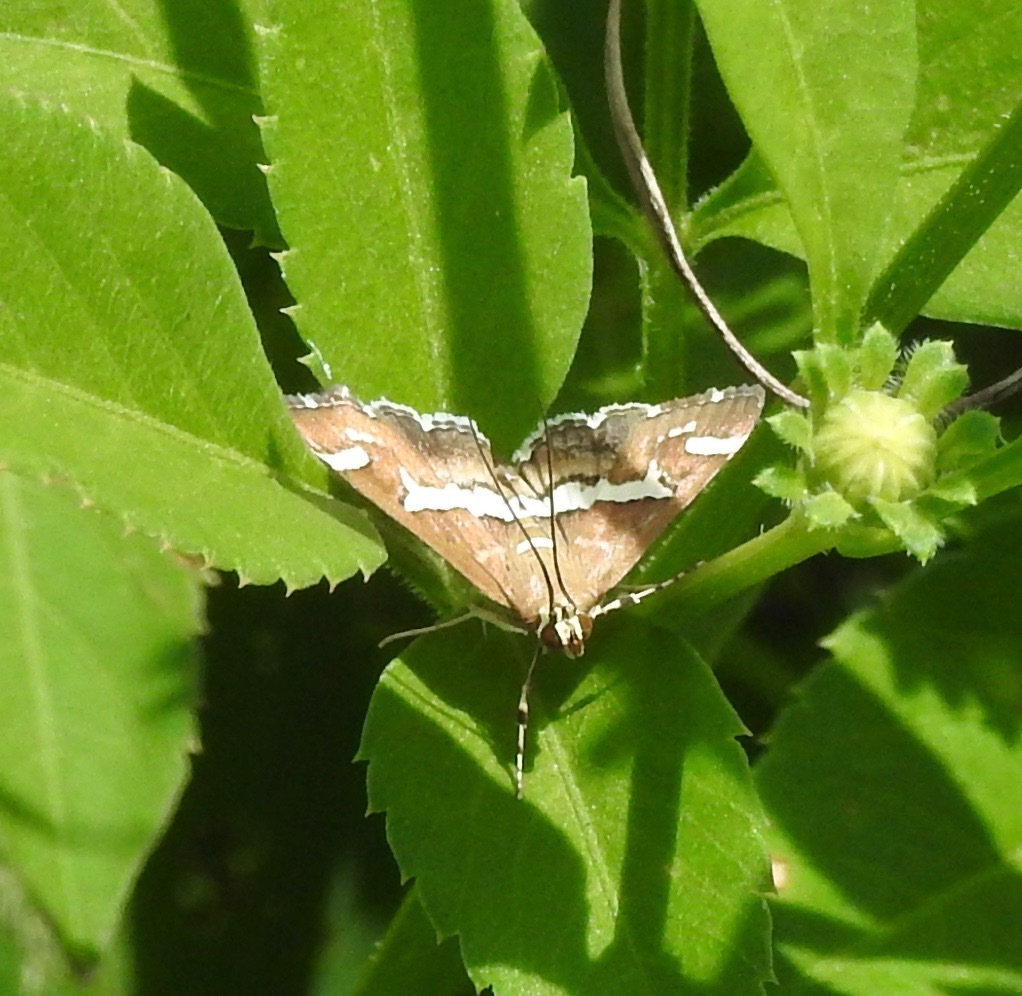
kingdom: Animalia
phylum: Arthropoda
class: Insecta
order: Lepidoptera
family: Crambidae
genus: Spoladea
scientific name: Spoladea recurvalis
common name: Beet webworm moth
